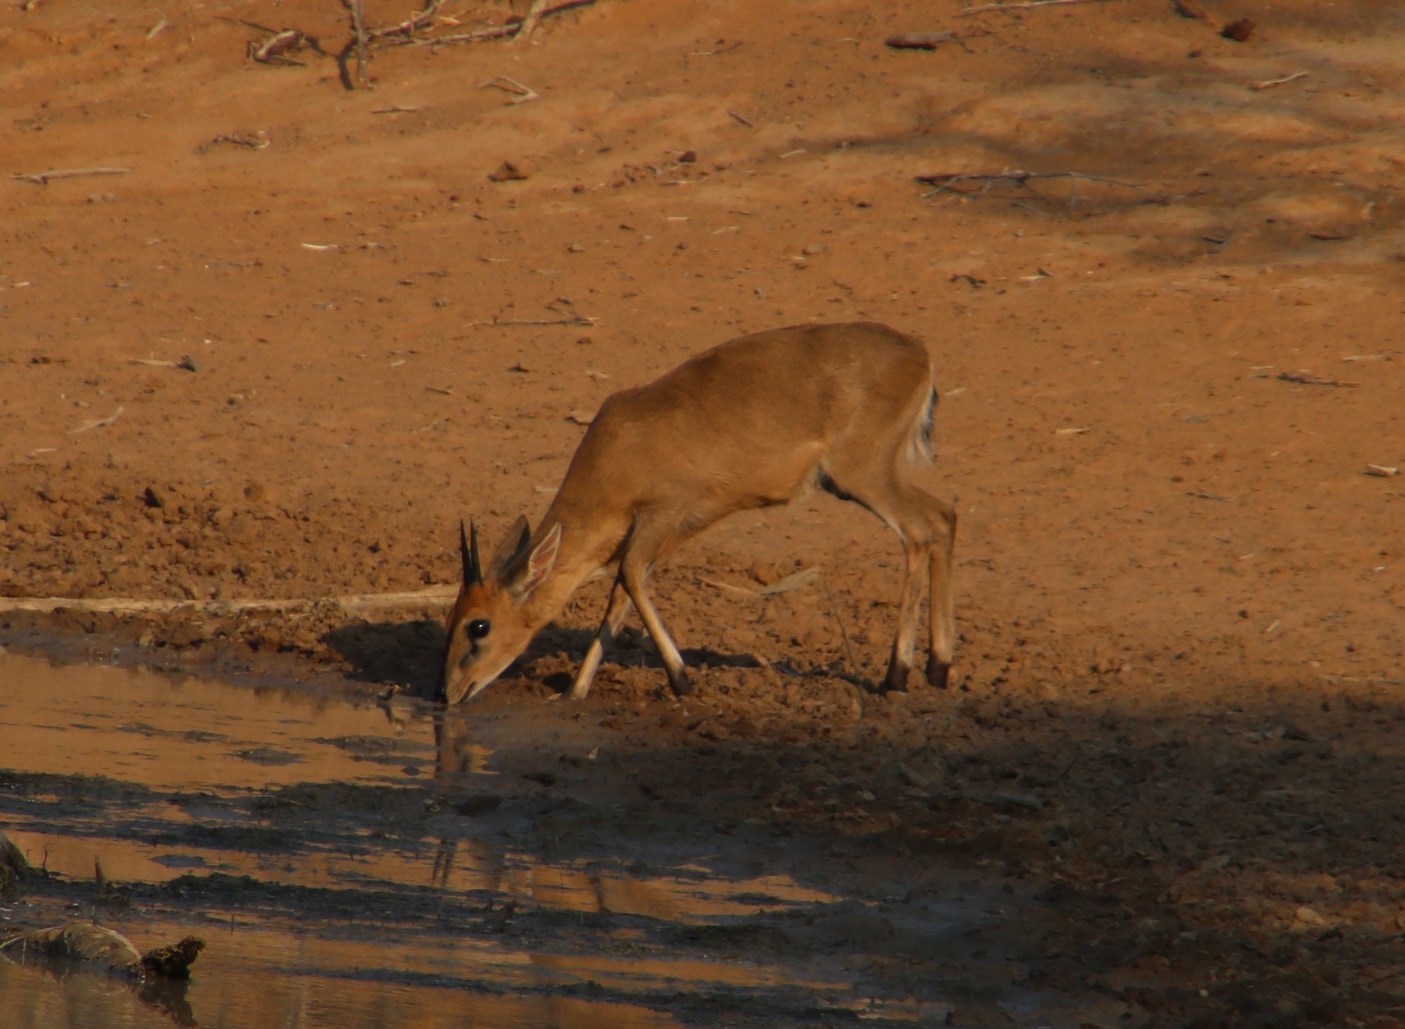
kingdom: Animalia
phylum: Chordata
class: Mammalia
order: Artiodactyla
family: Bovidae
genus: Sylvicapra
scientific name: Sylvicapra grimmia
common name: Bush duiker
